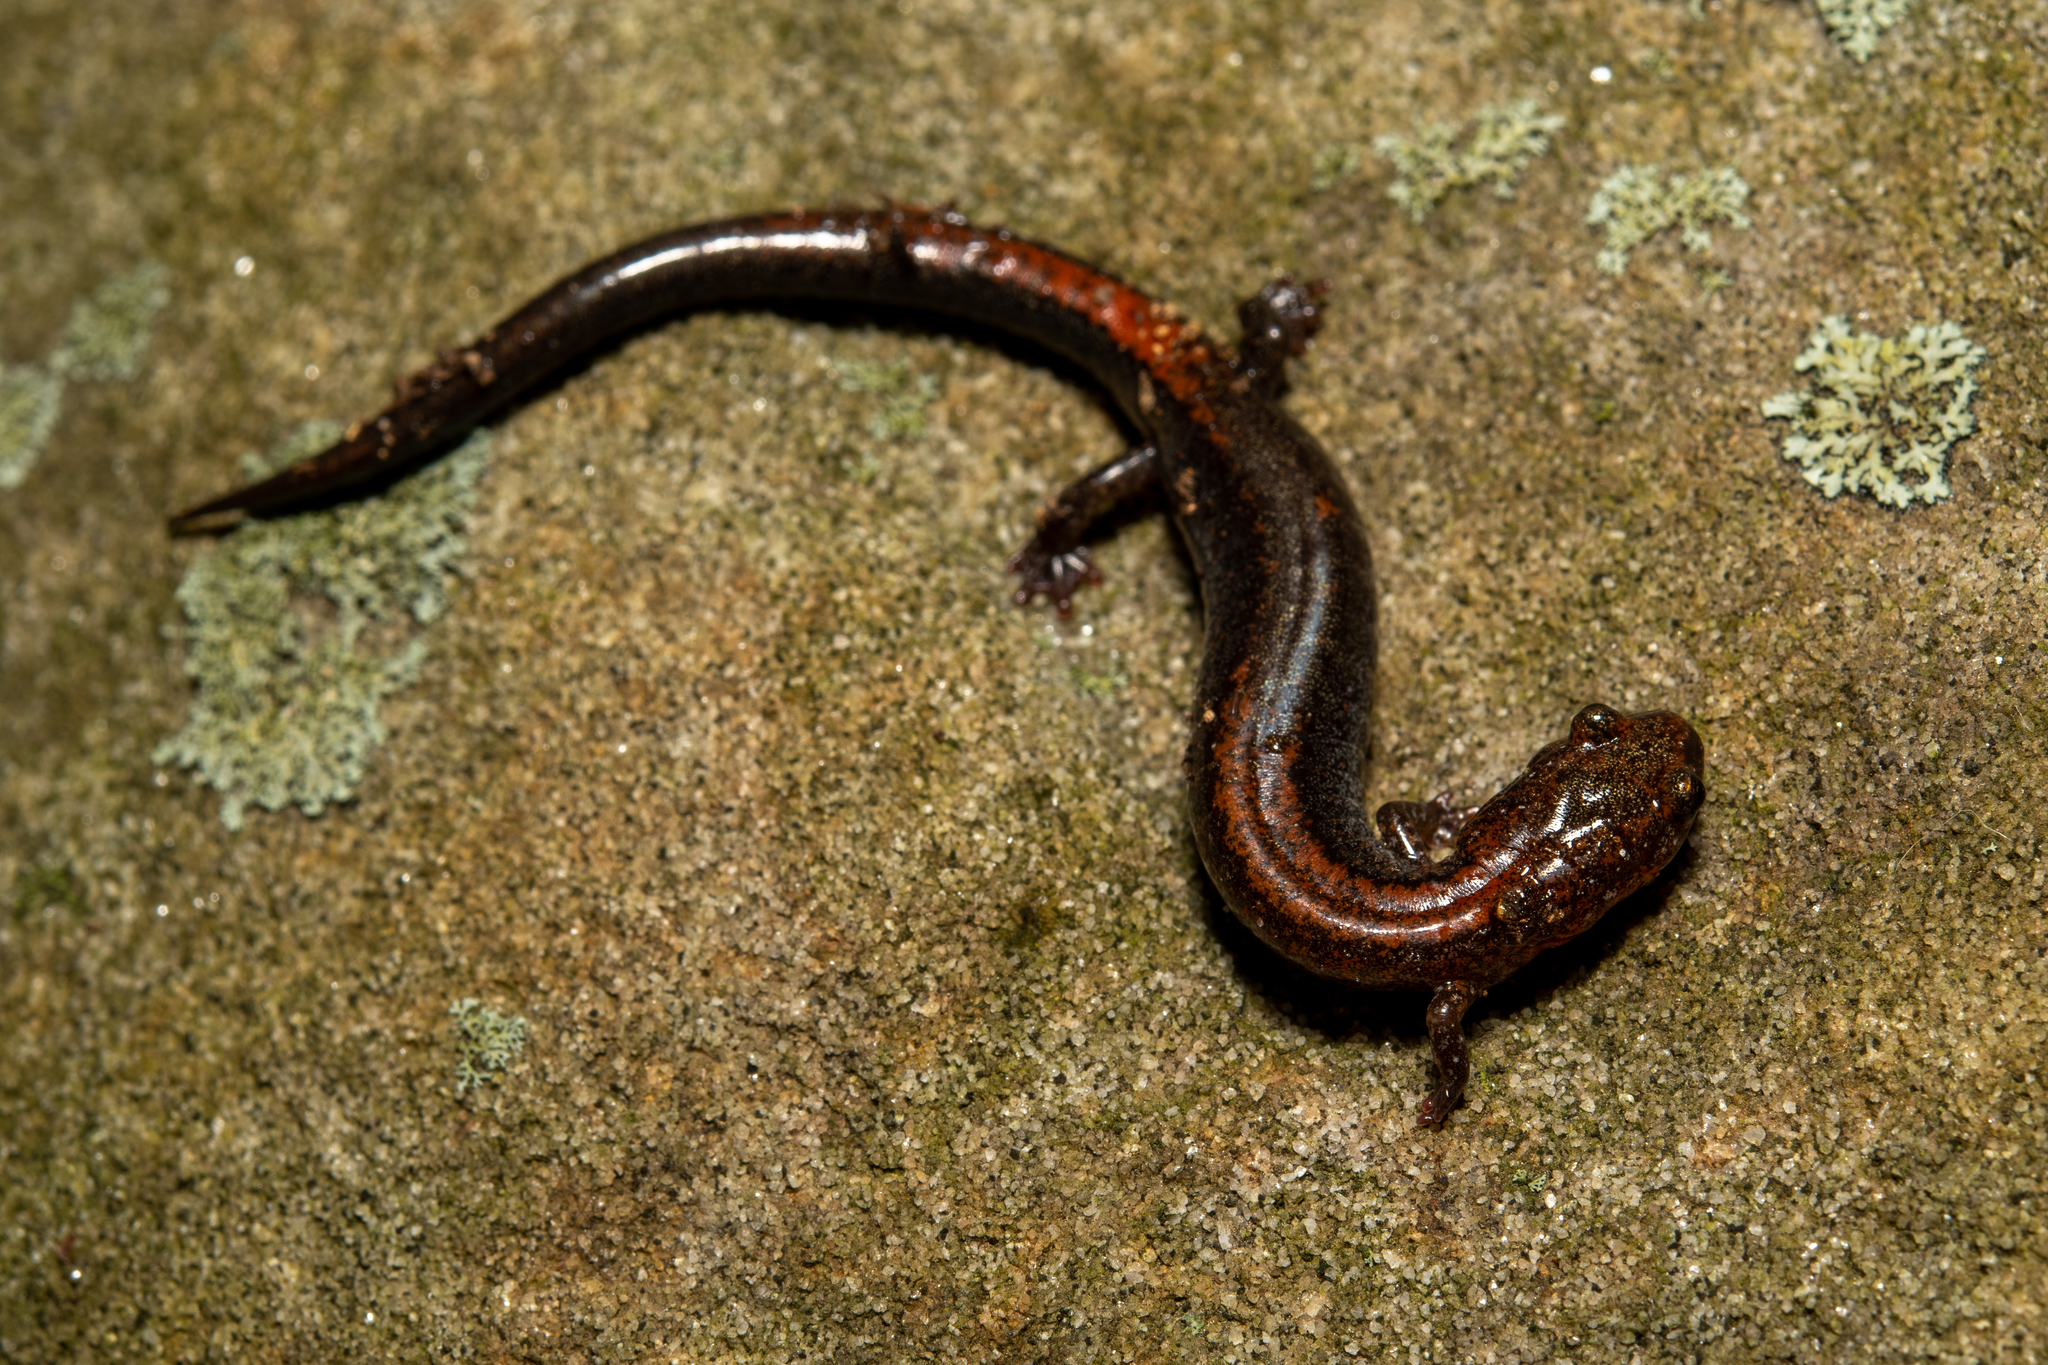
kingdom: Animalia
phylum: Chordata
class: Amphibia
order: Caudata
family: Plethodontidae
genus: Plethodon
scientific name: Plethodon cinereus
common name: Redback salamander
